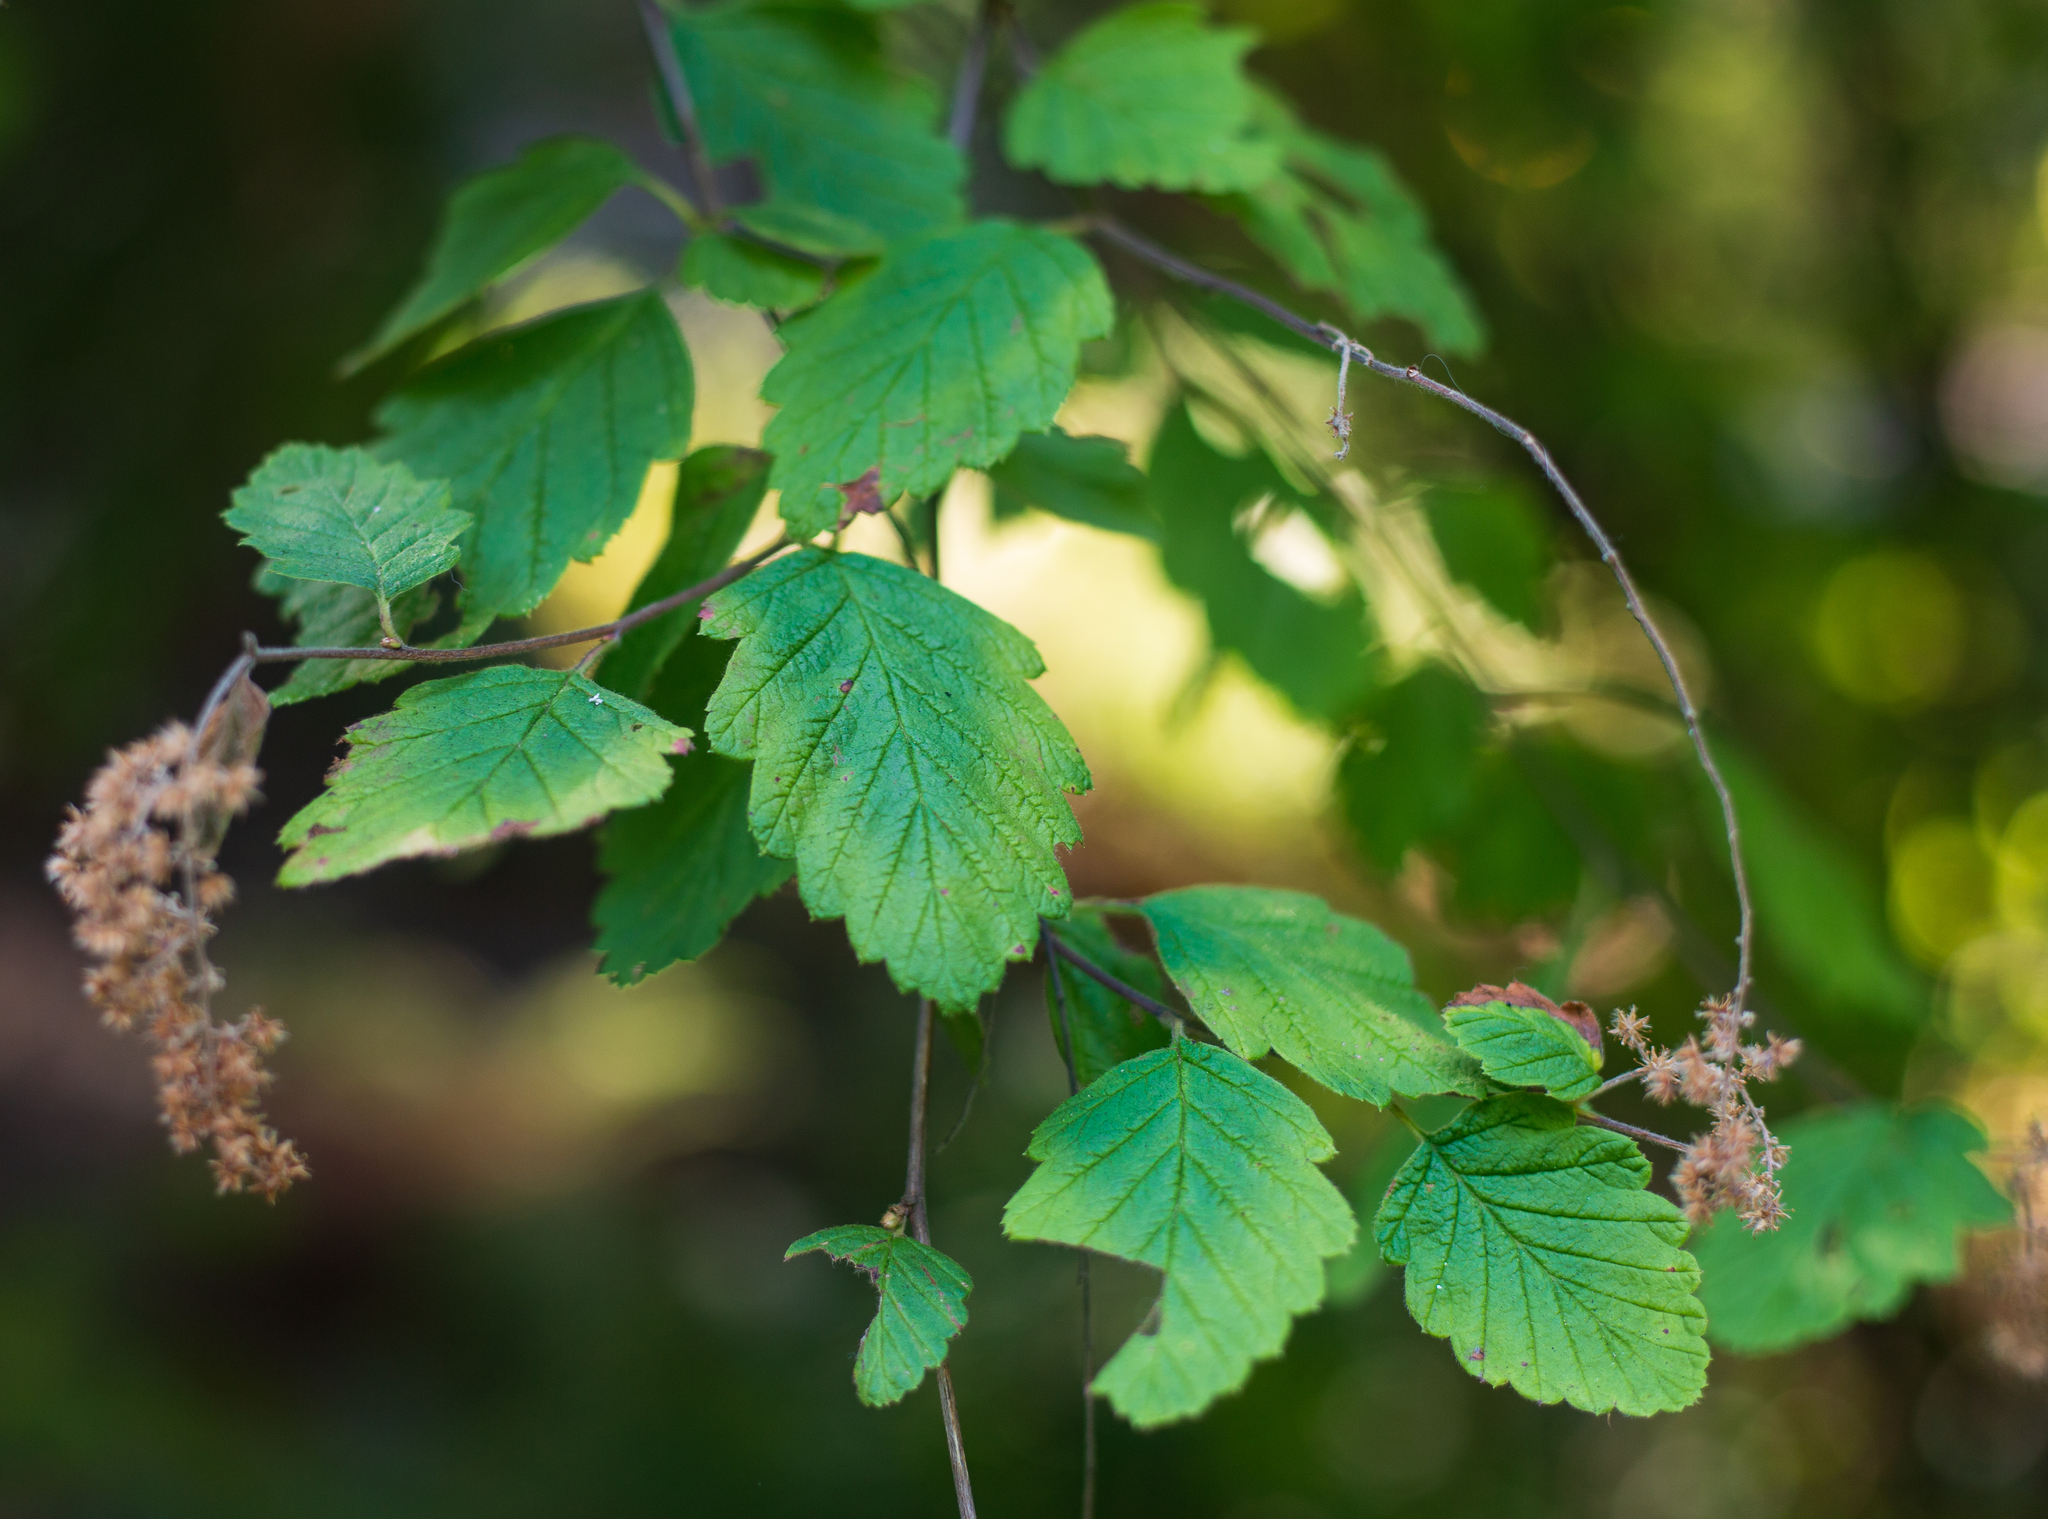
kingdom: Plantae
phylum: Tracheophyta
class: Magnoliopsida
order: Rosales
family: Rosaceae
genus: Holodiscus
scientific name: Holodiscus discolor
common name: Oceanspray
